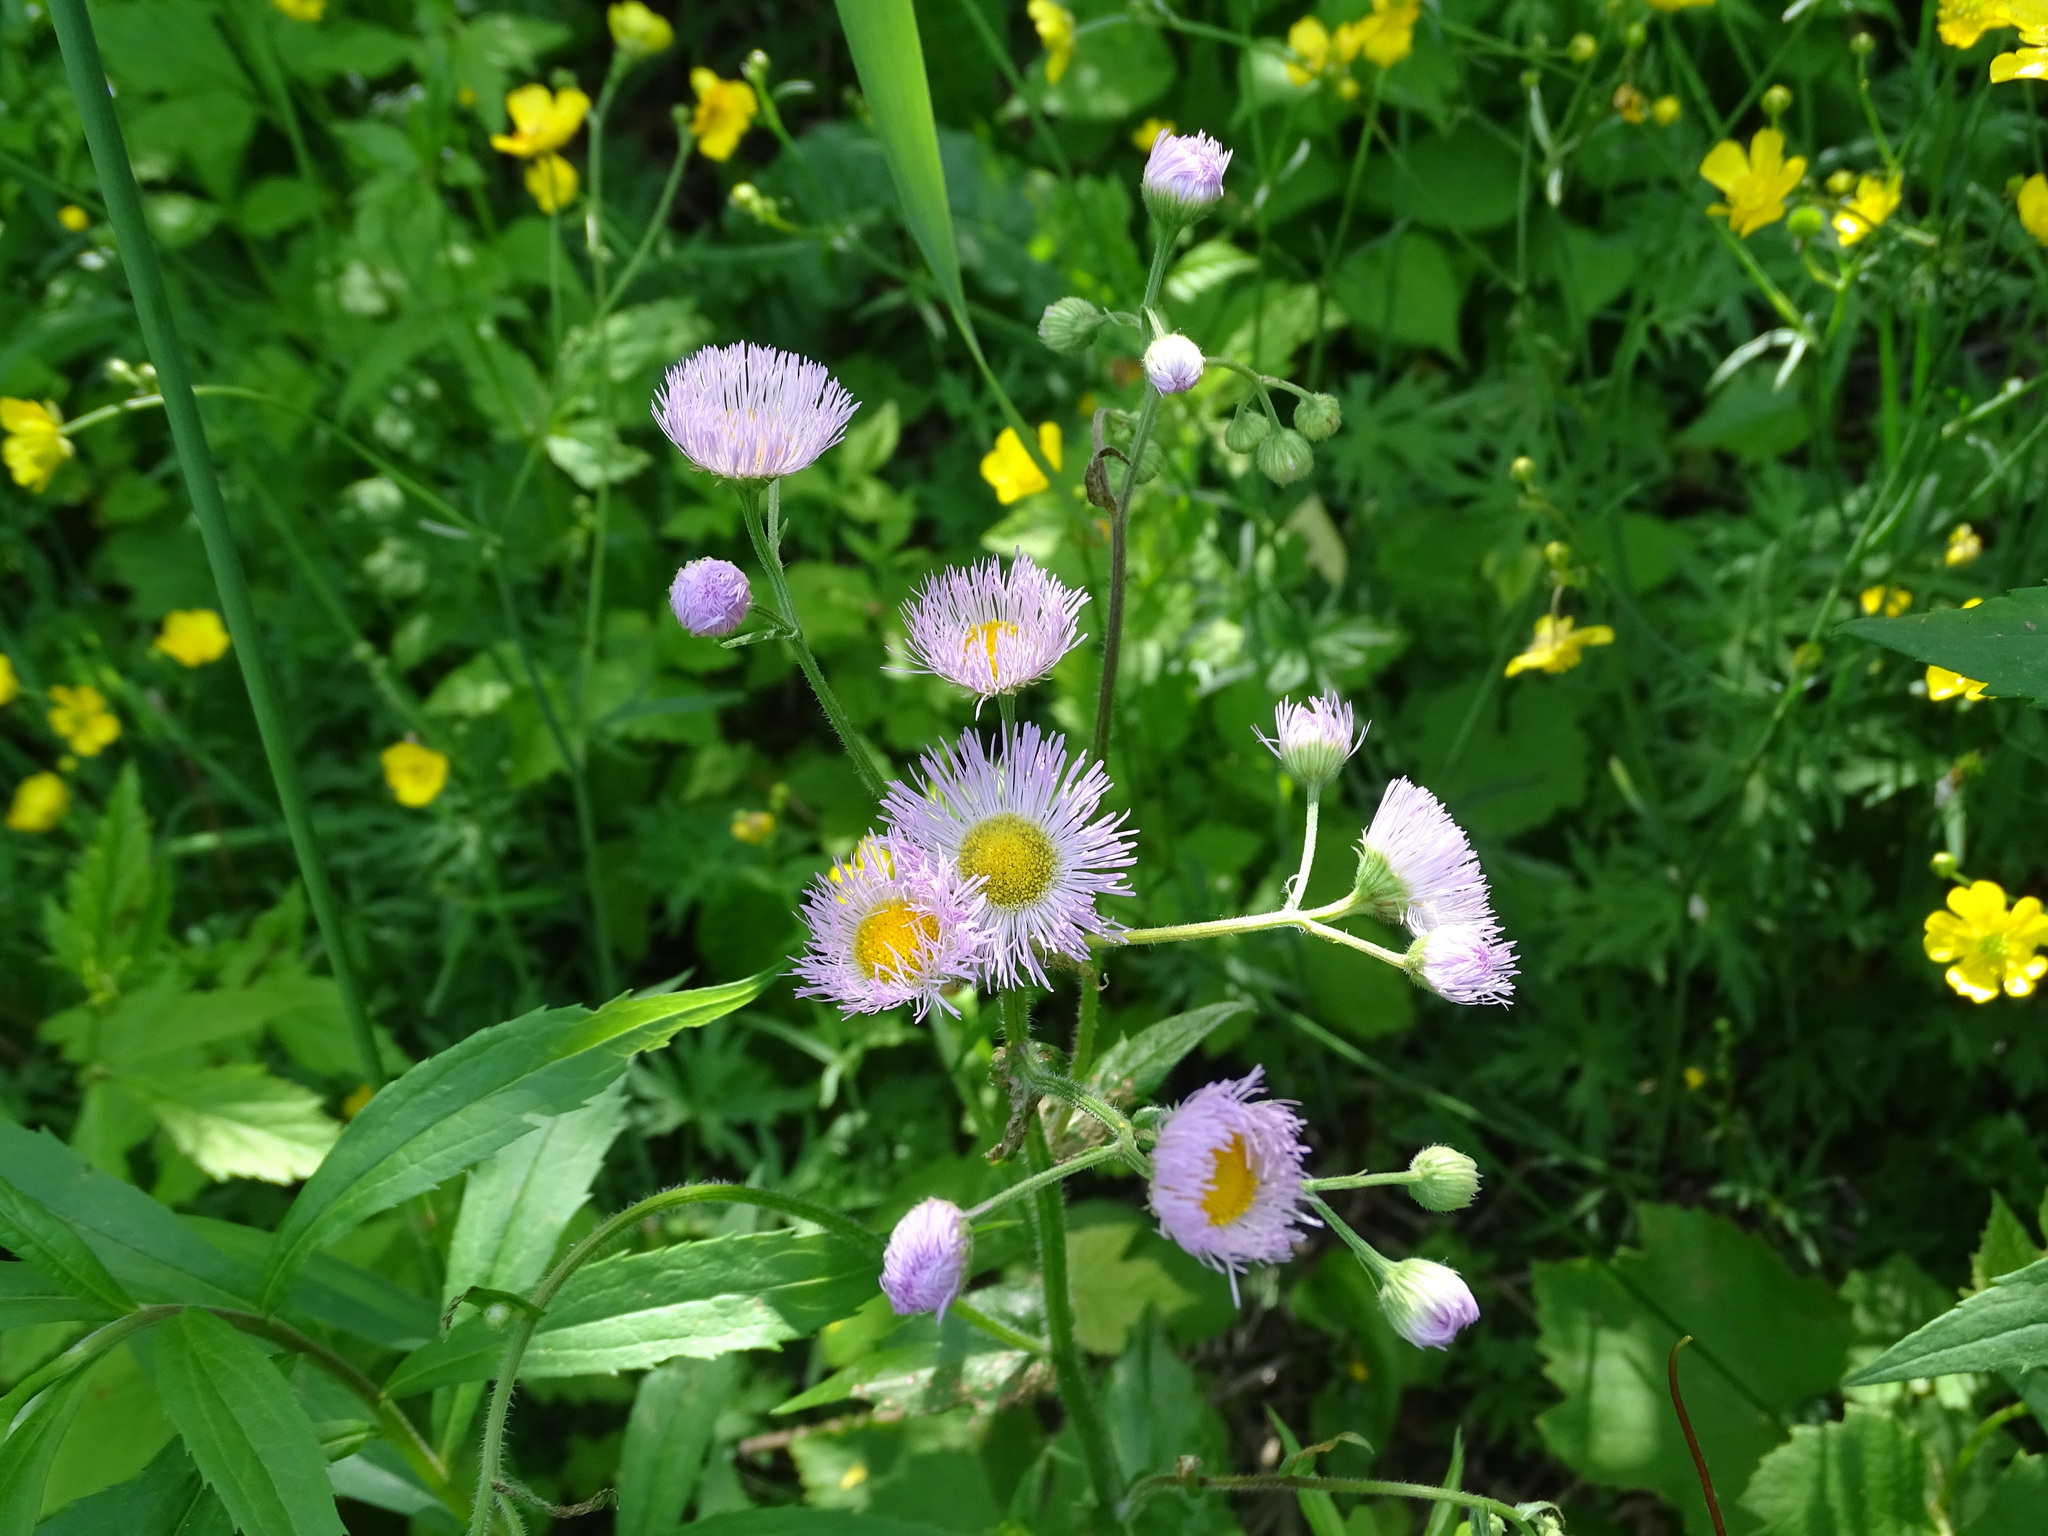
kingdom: Plantae
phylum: Tracheophyta
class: Magnoliopsida
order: Asterales
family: Asteraceae
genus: Erigeron
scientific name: Erigeron philadelphicus
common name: Robin's-plantain
